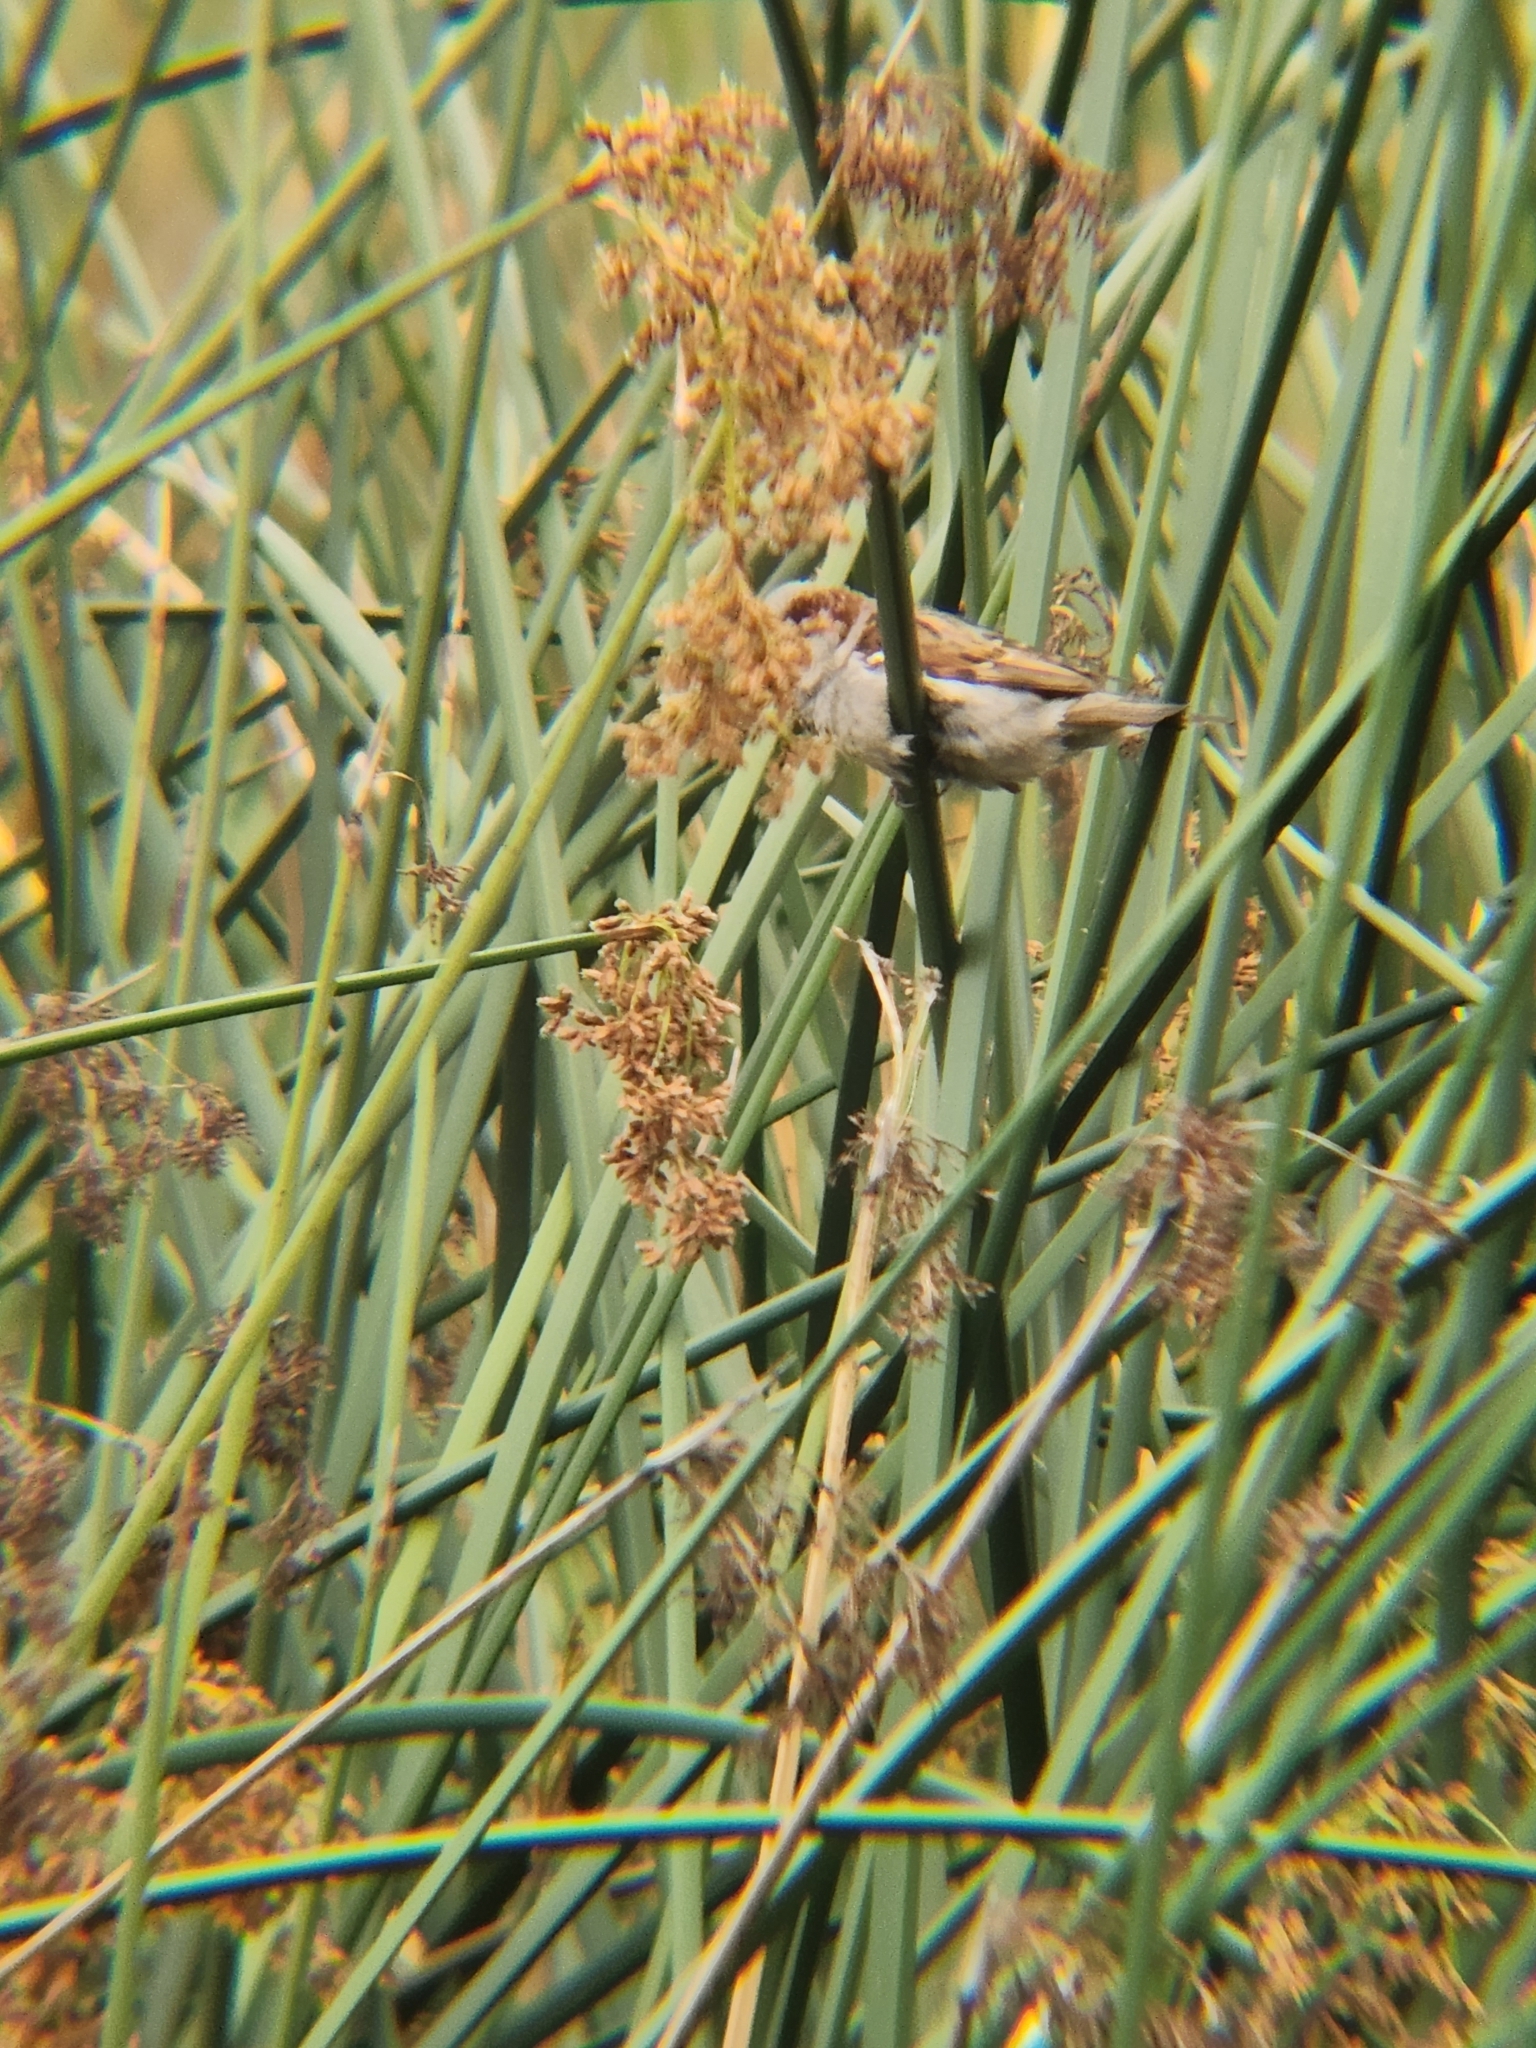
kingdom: Animalia
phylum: Chordata
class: Aves
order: Passeriformes
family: Passeridae
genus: Passer
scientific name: Passer domesticus
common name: House sparrow
